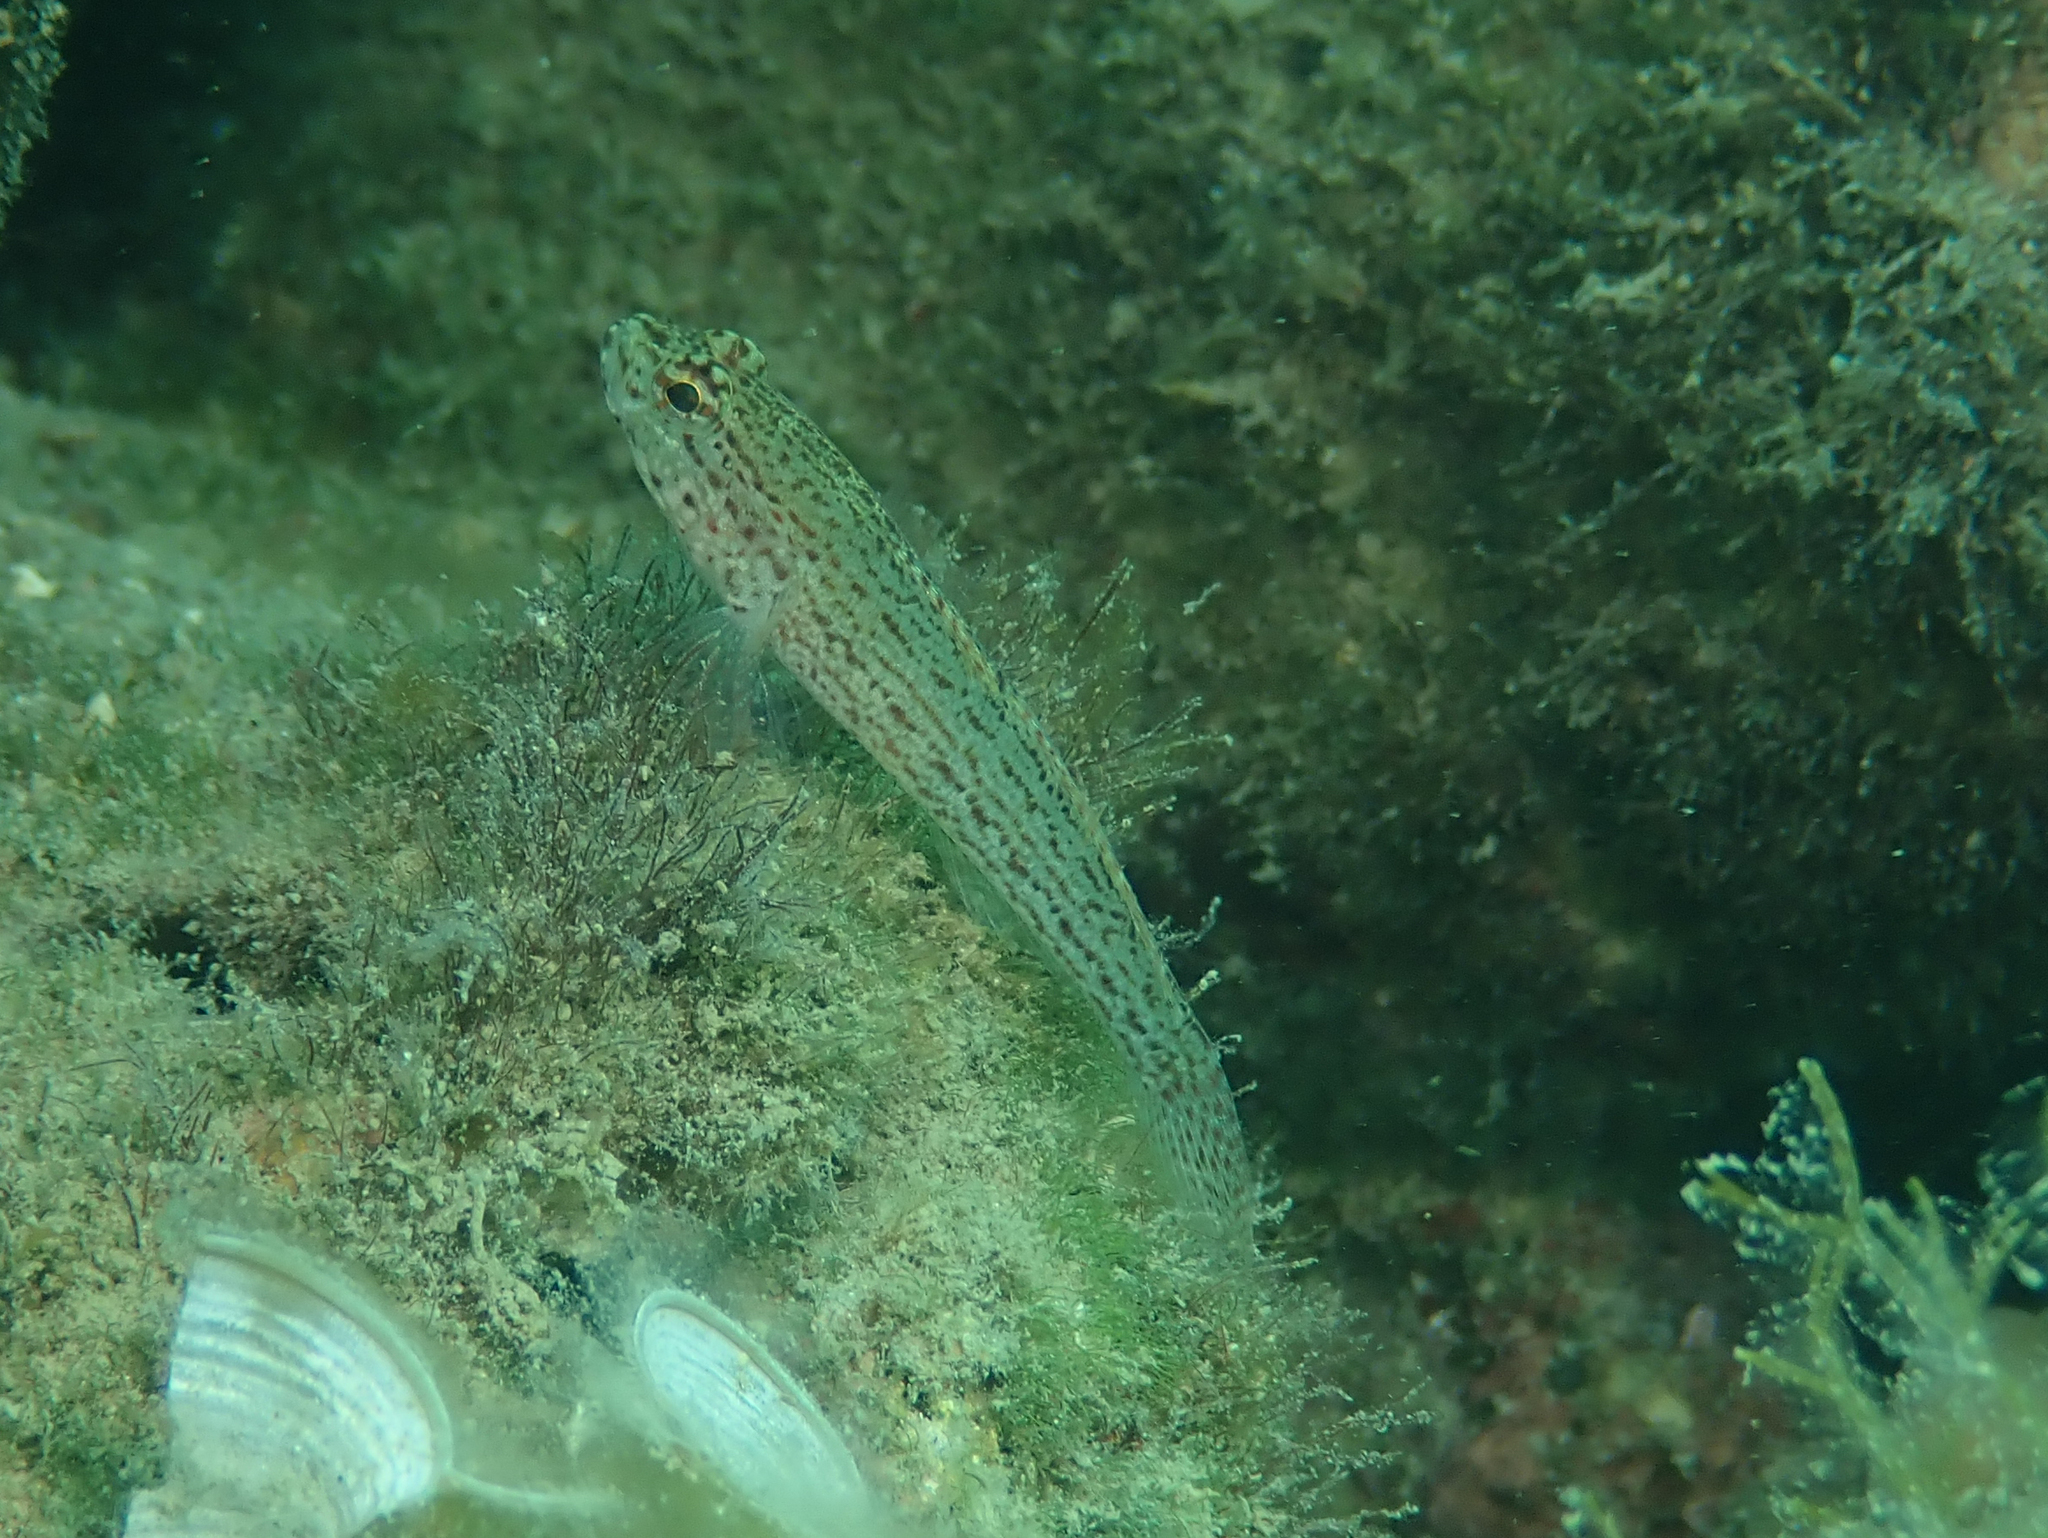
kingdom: Animalia
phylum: Chordata
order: Perciformes
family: Gobiidae
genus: Gobius
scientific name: Gobius fallax
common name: Sarato's goby
